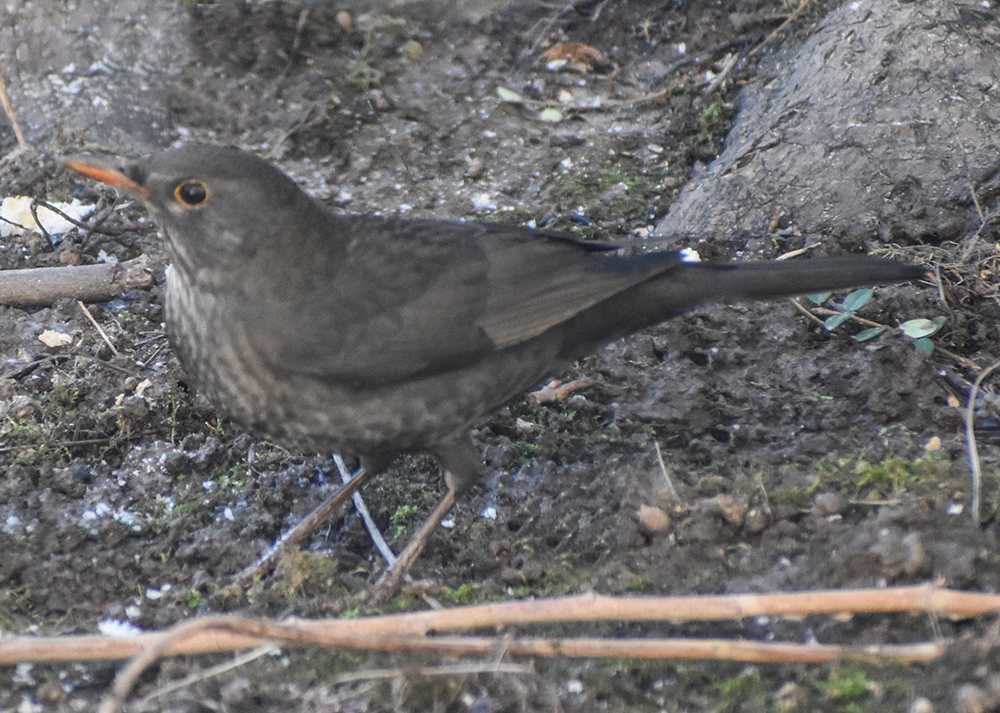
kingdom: Animalia
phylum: Chordata
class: Aves
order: Passeriformes
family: Turdidae
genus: Turdus
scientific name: Turdus merula
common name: Common blackbird
